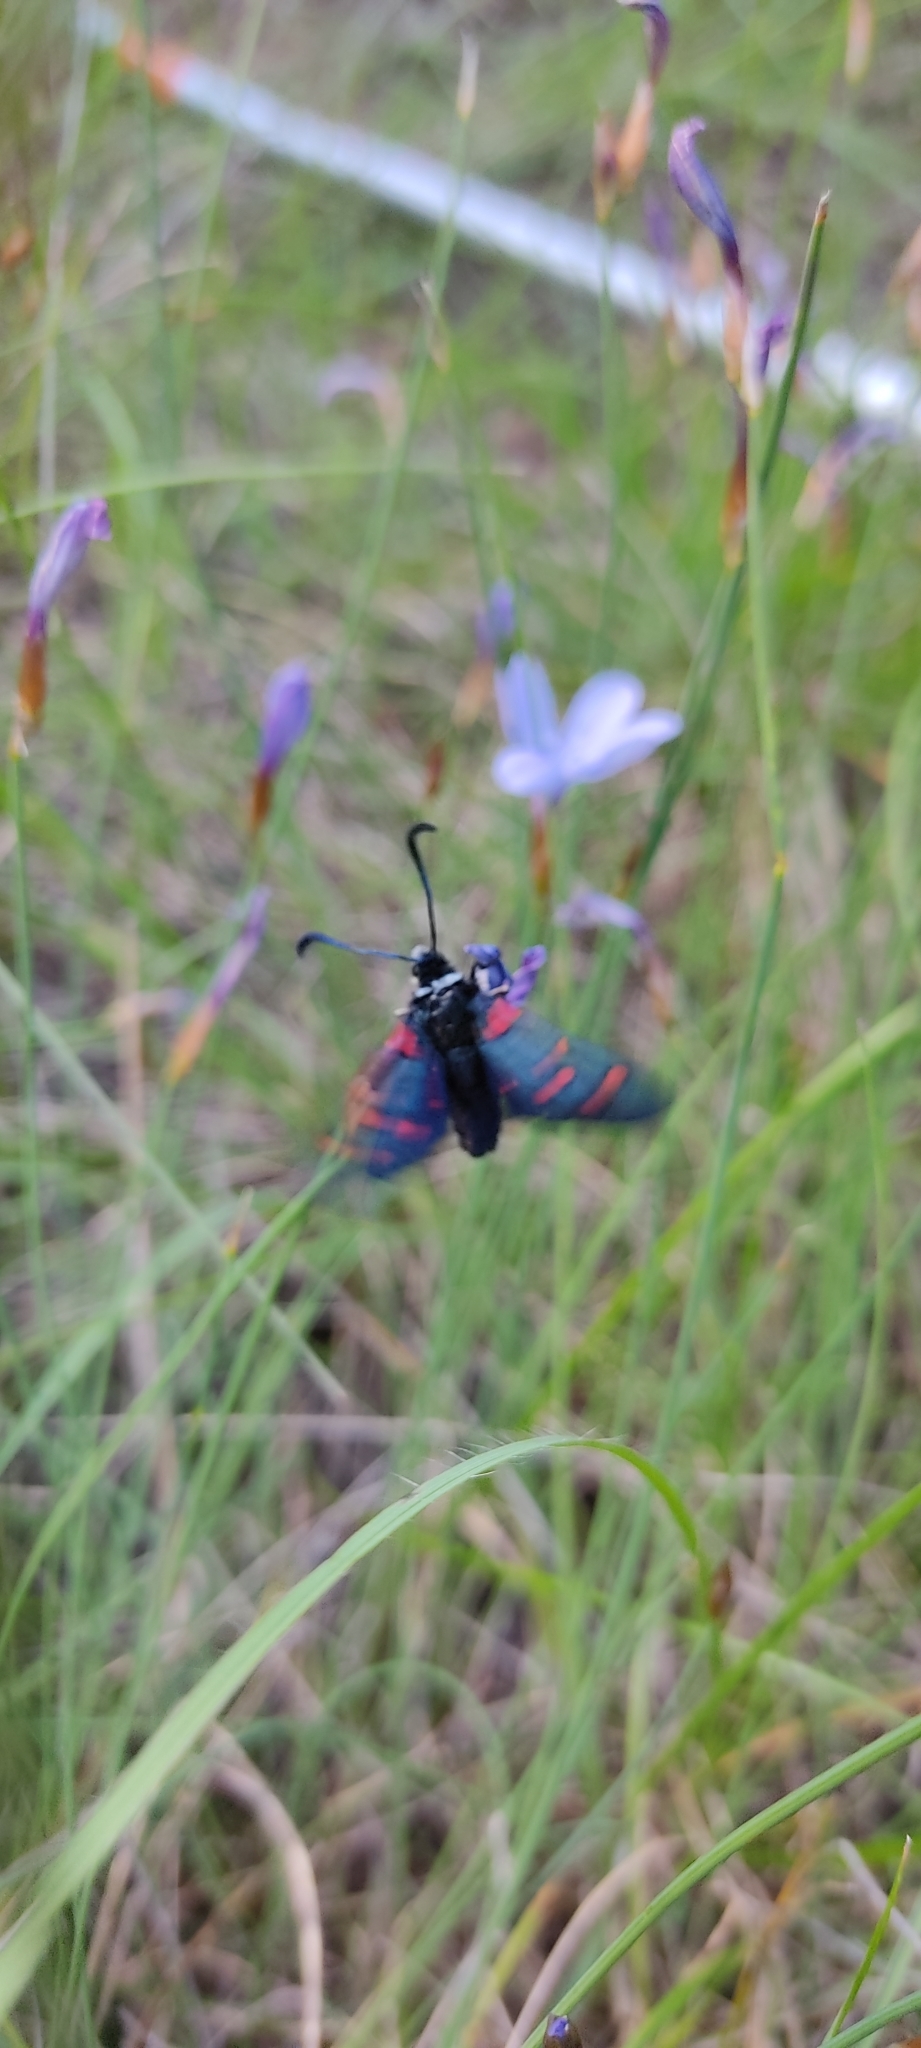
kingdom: Animalia
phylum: Arthropoda
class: Insecta
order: Lepidoptera
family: Zygaenidae
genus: Zygaena
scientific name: Zygaena lavandulae
